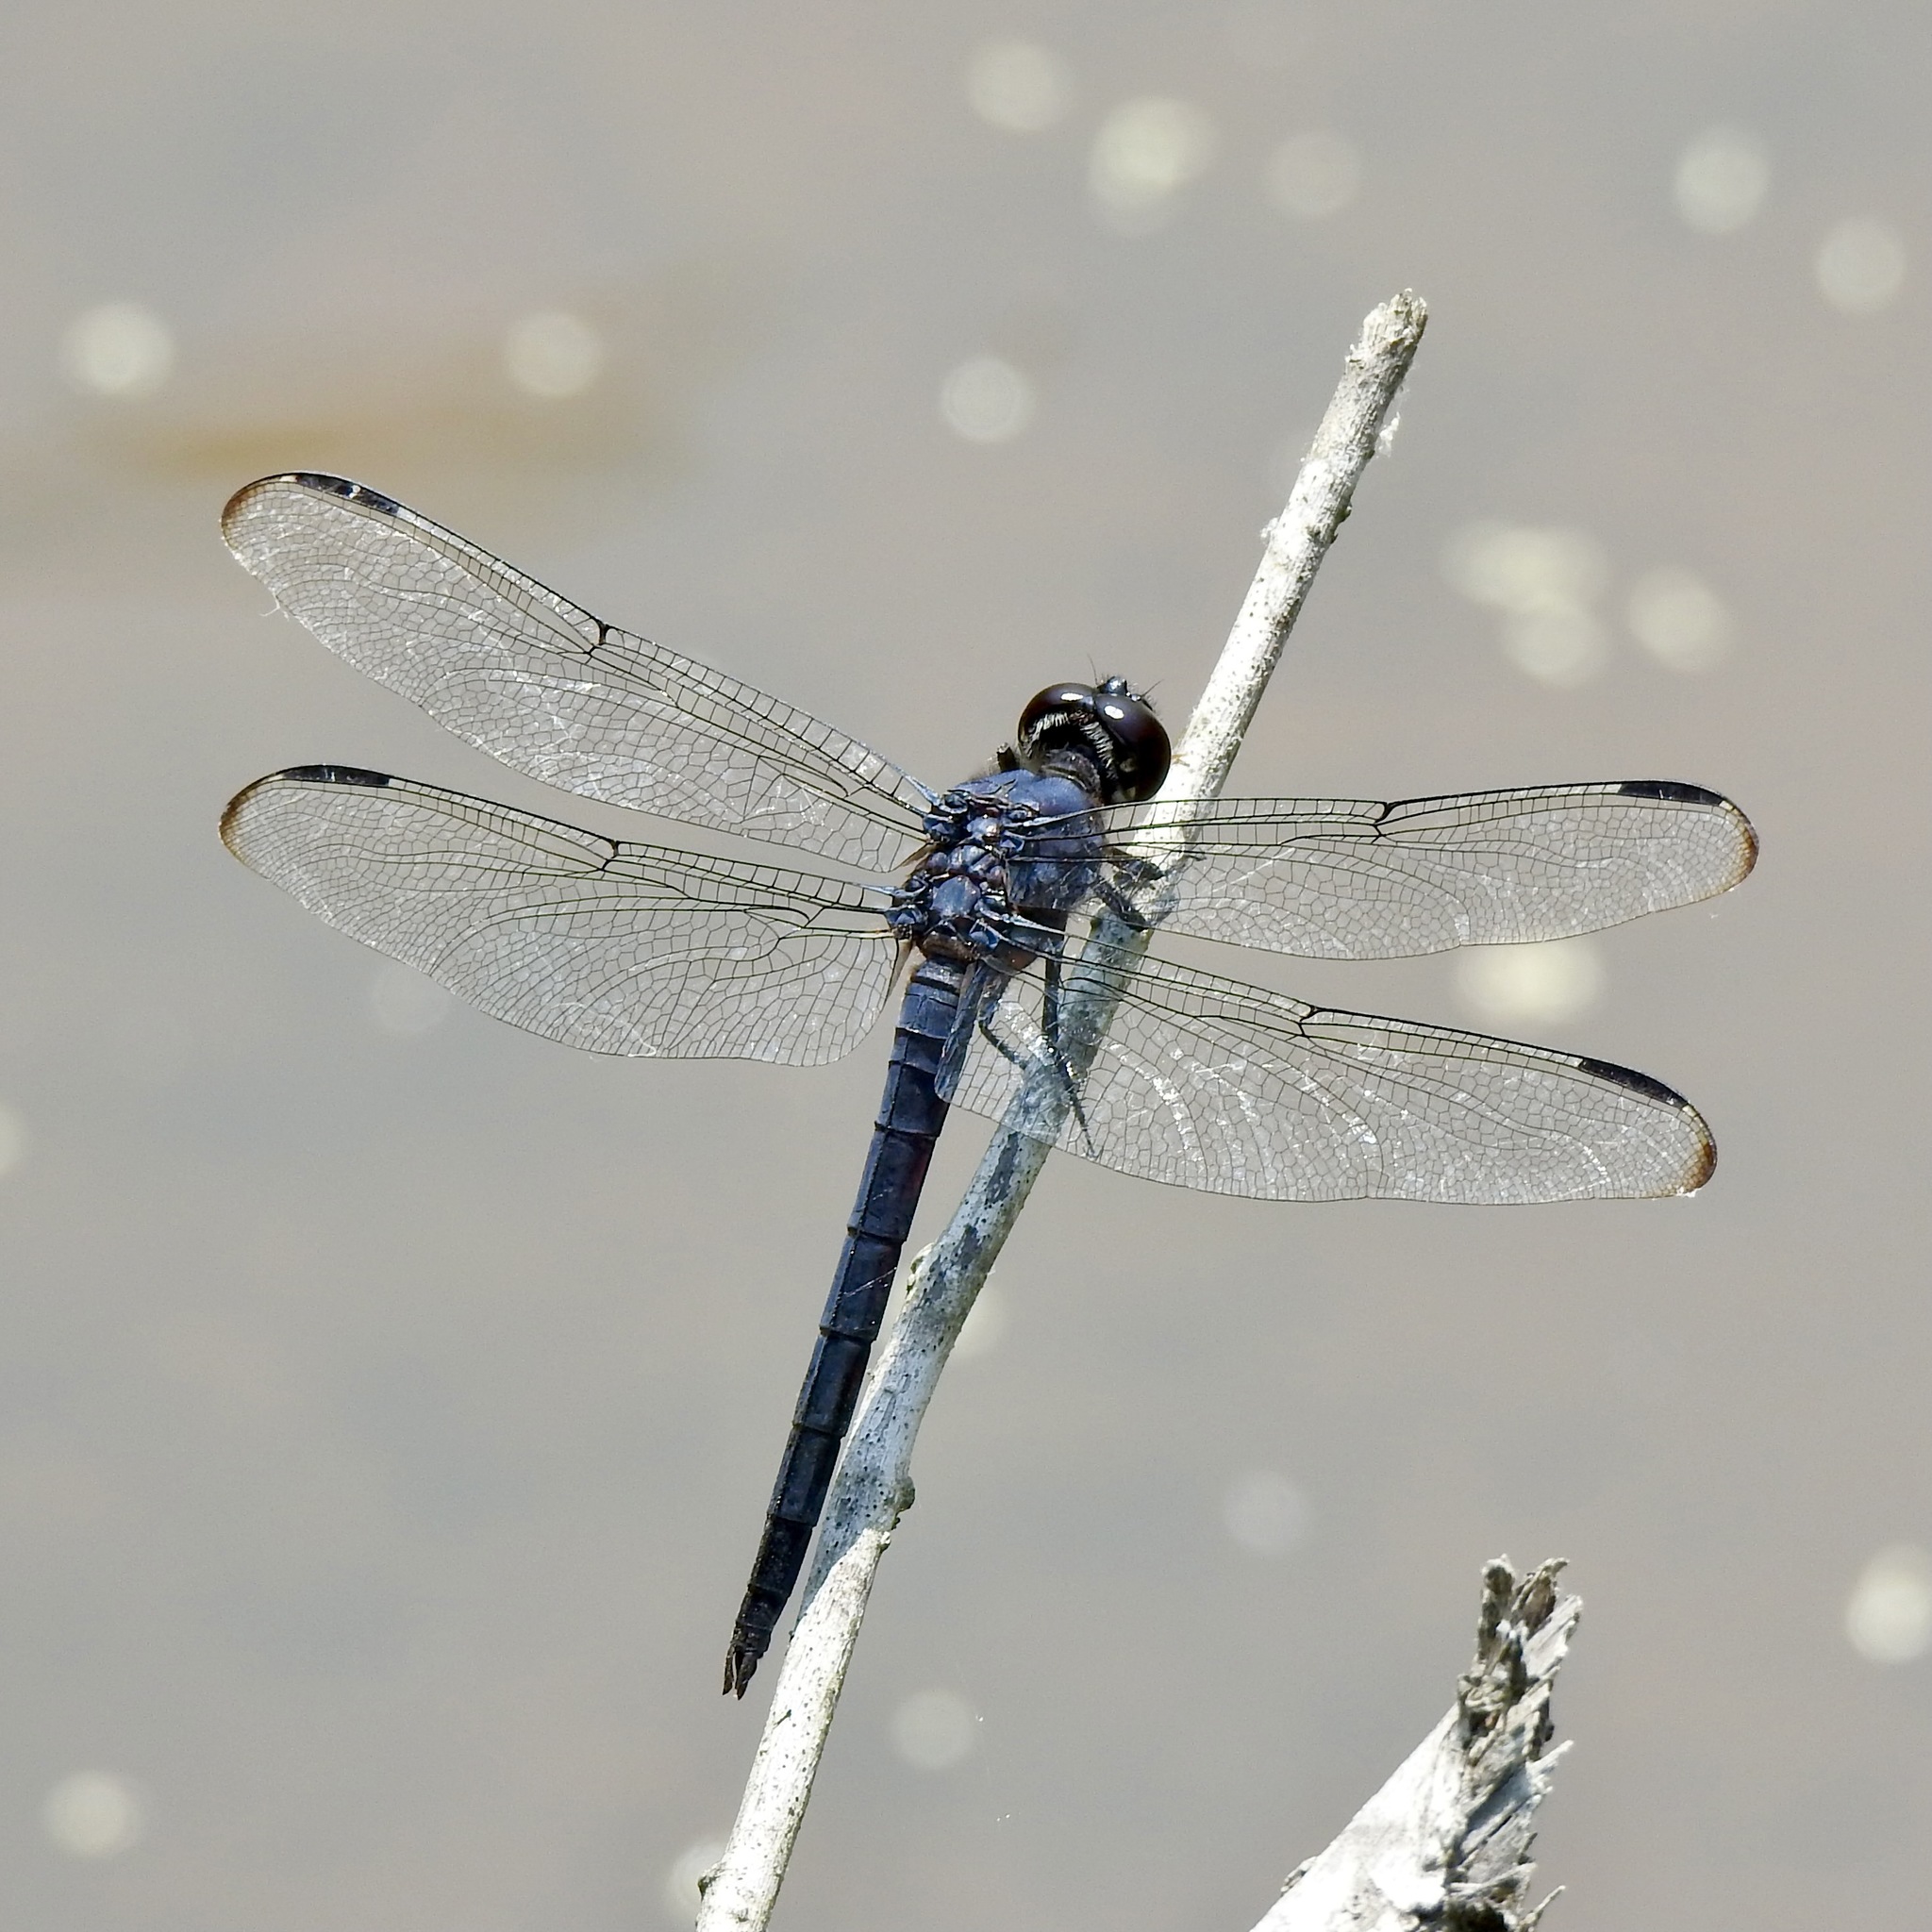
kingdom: Animalia
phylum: Arthropoda
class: Insecta
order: Odonata
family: Libellulidae
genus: Libellula
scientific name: Libellula incesta
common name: Slaty skimmer
